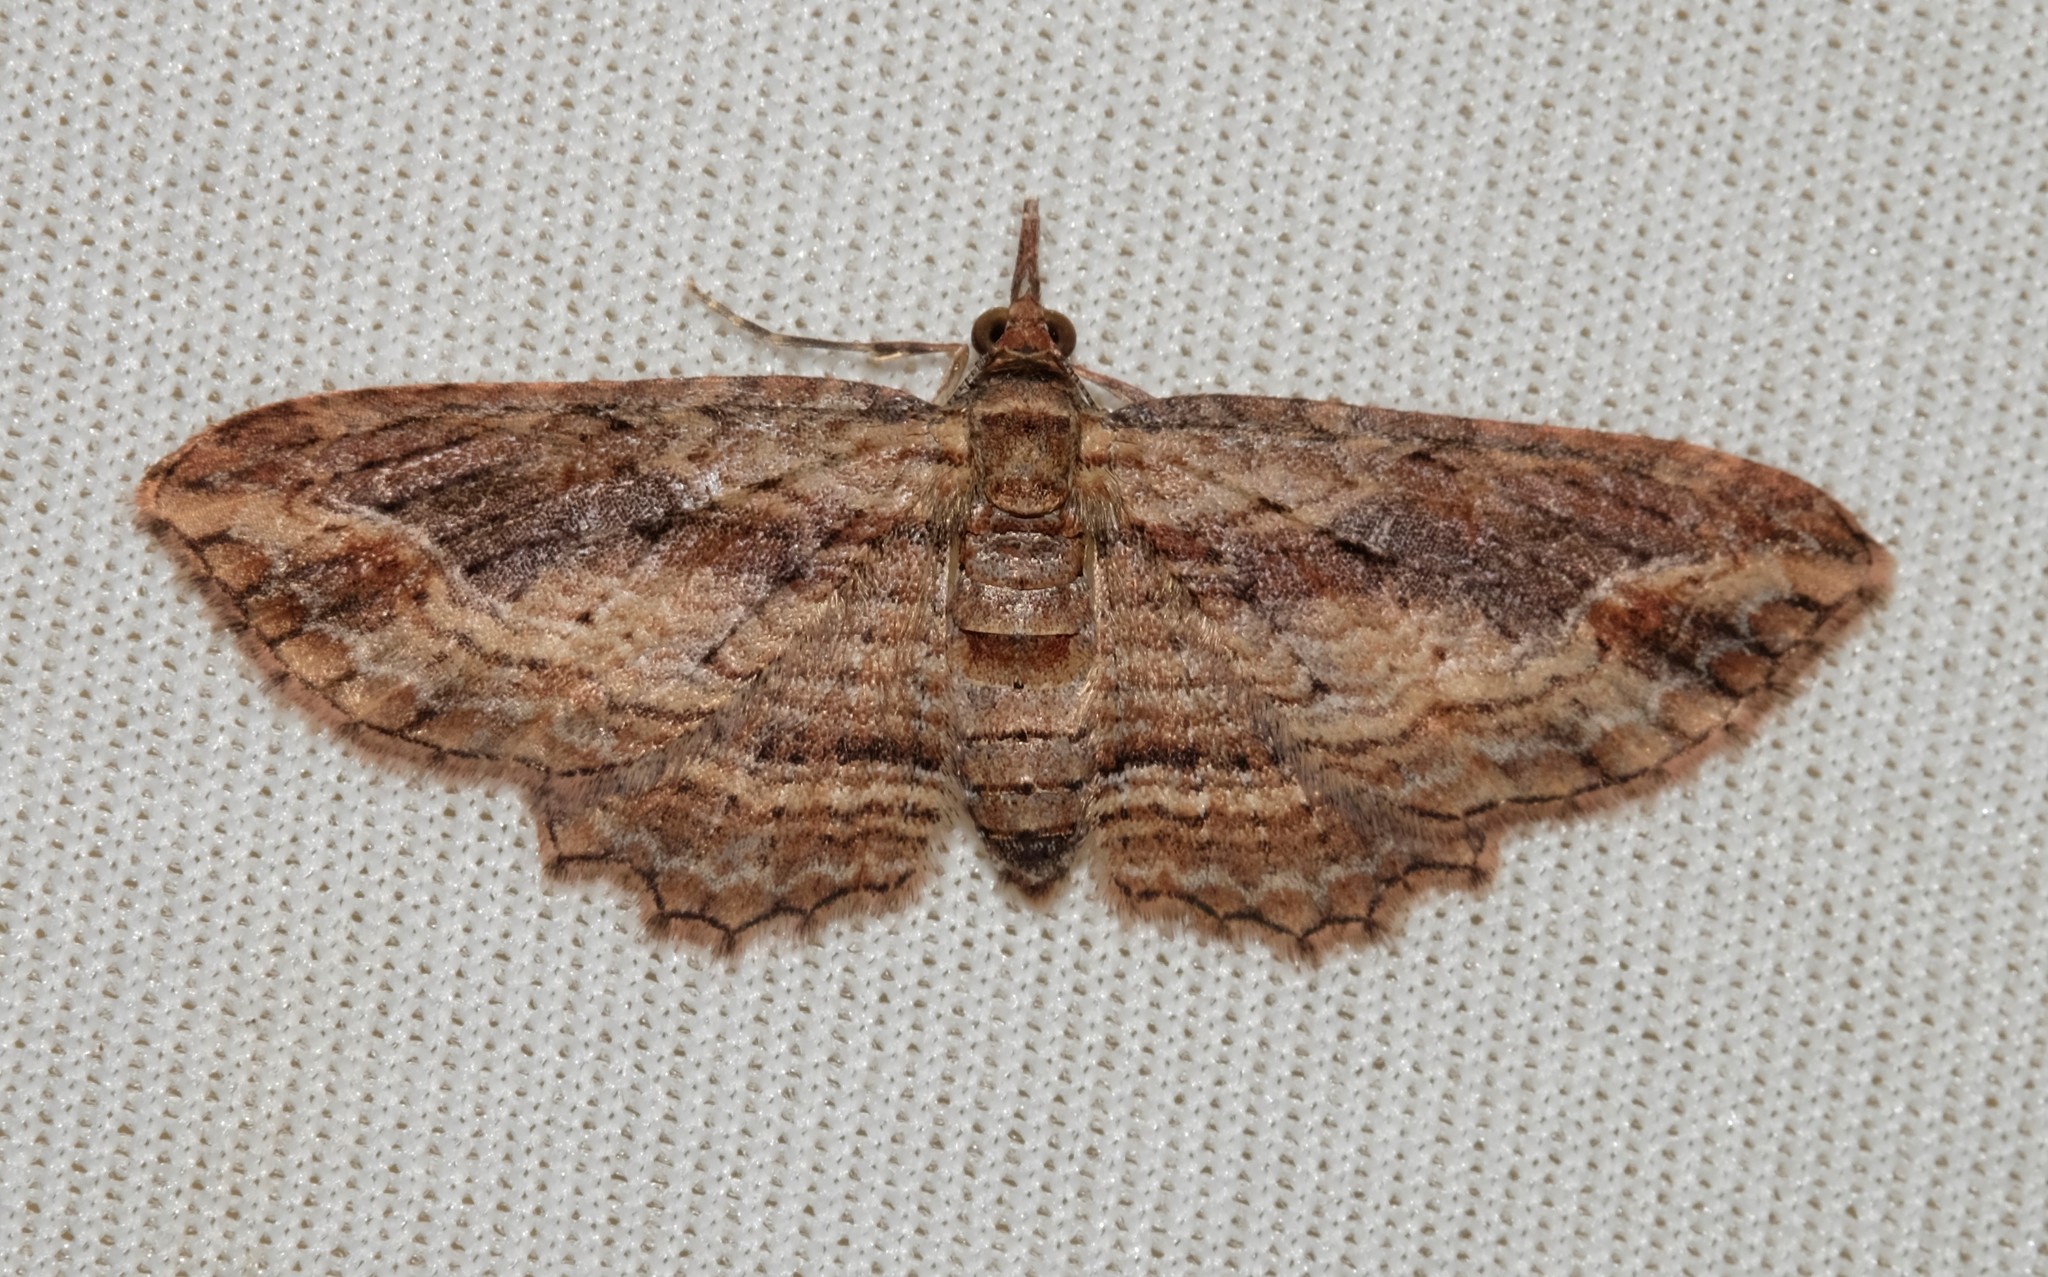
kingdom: Animalia
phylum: Arthropoda
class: Insecta
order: Lepidoptera
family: Geometridae
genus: Chloroclystis
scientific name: Chloroclystis filata
